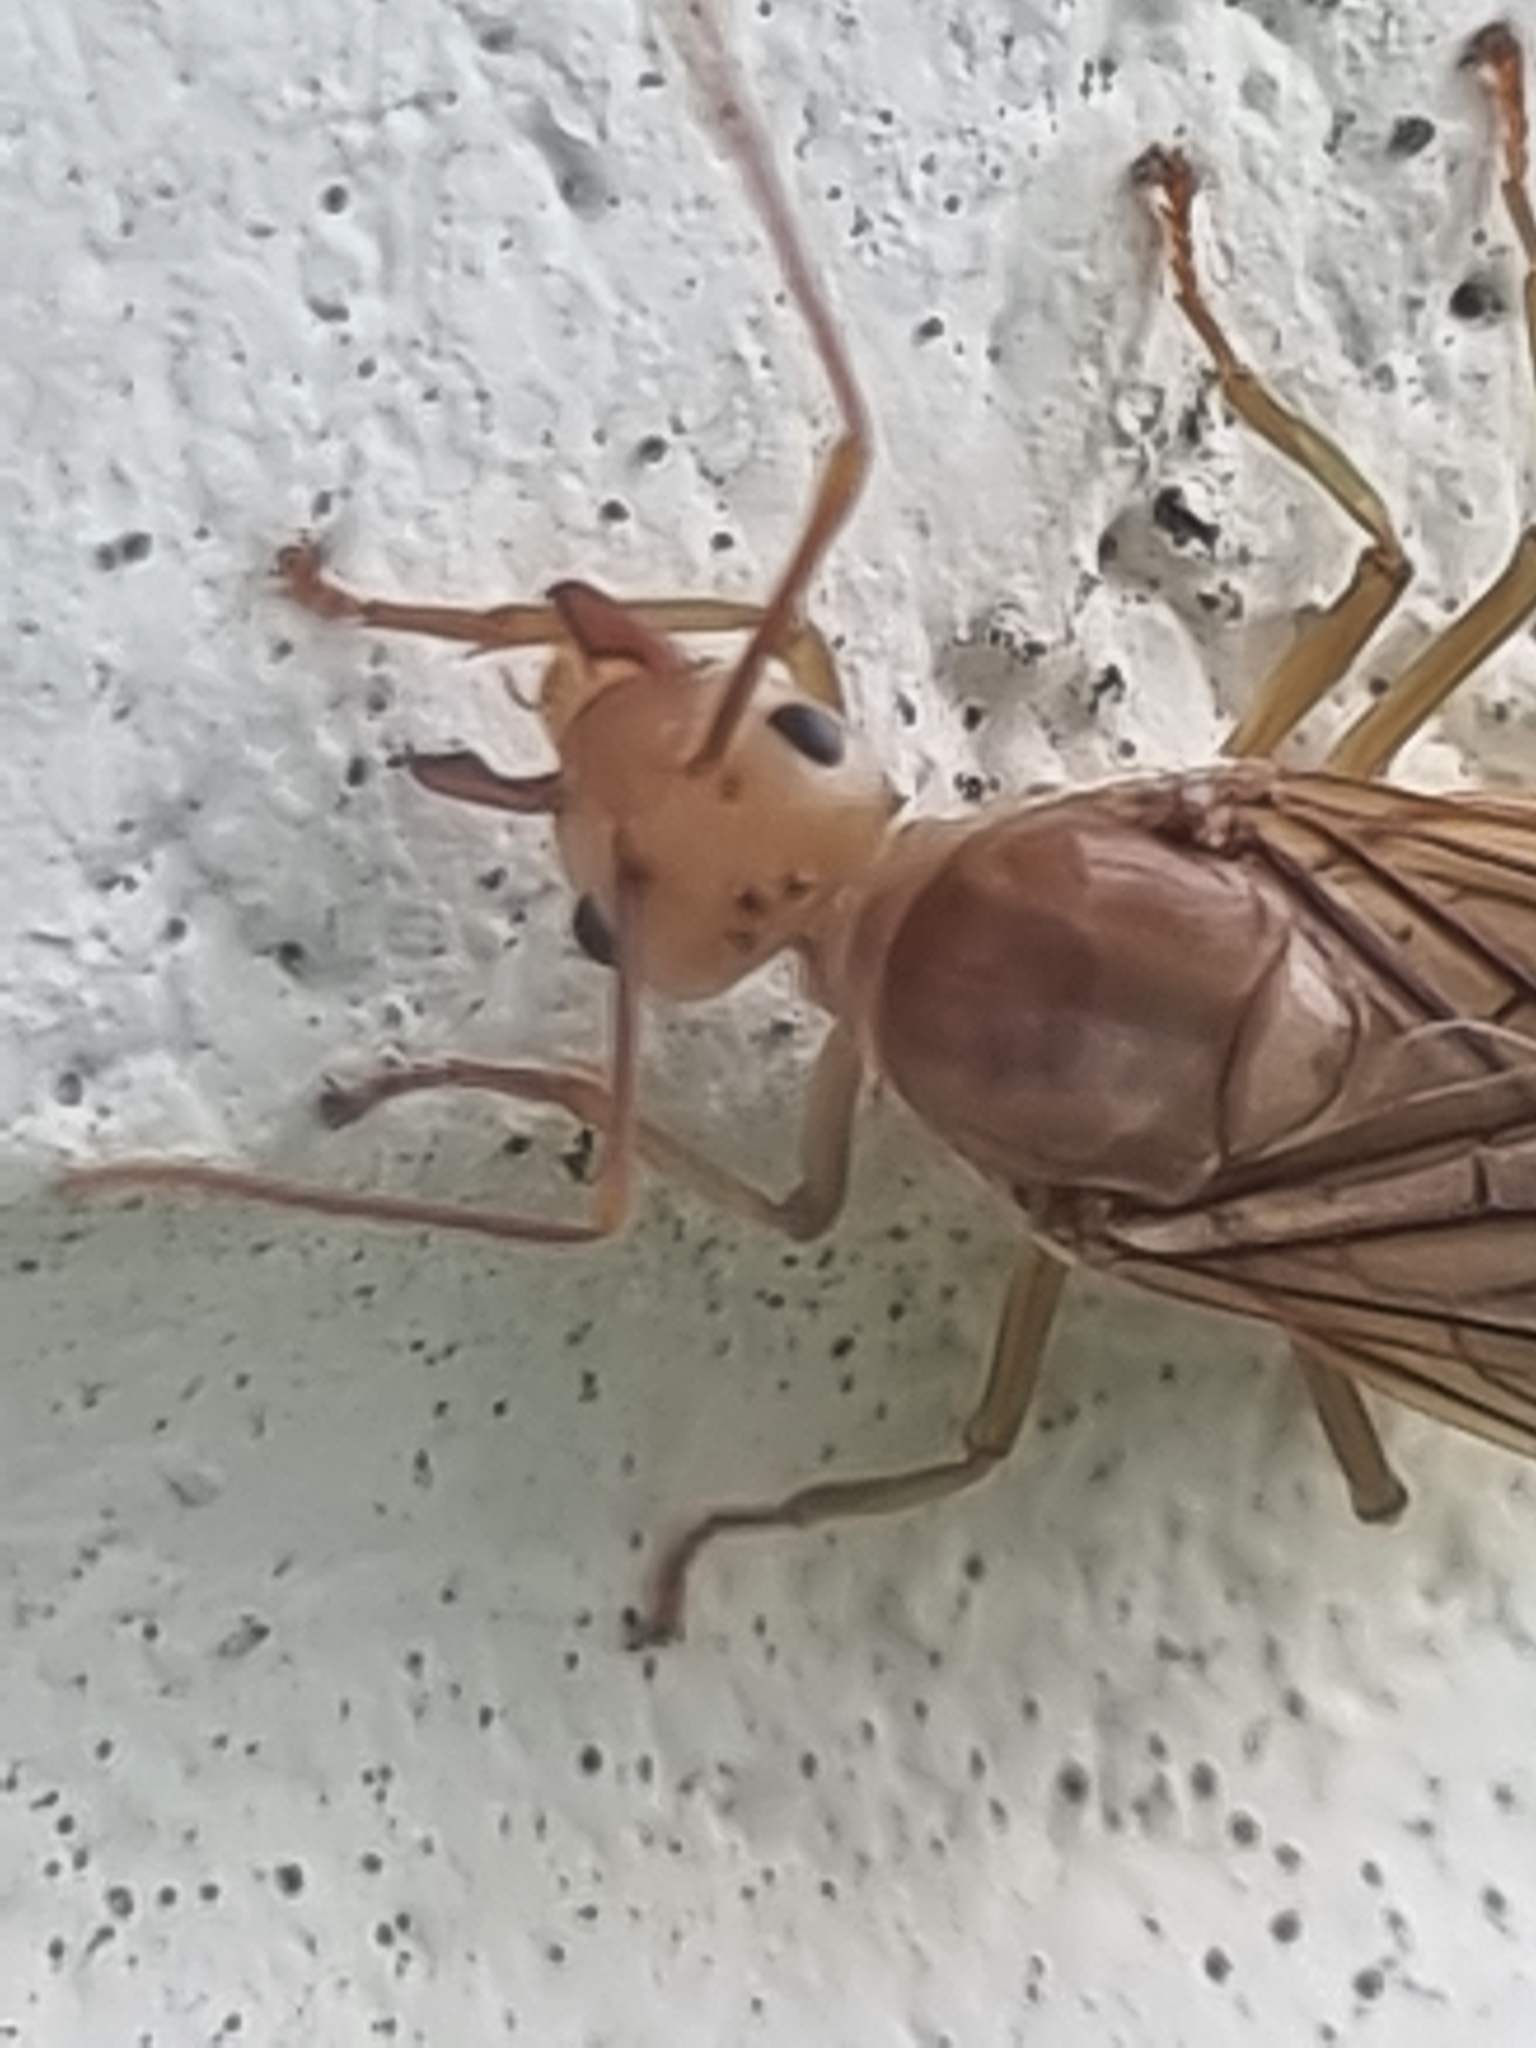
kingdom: Animalia
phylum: Arthropoda
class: Insecta
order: Hymenoptera
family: Formicidae
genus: Oecophylla
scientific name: Oecophylla smaragdina
